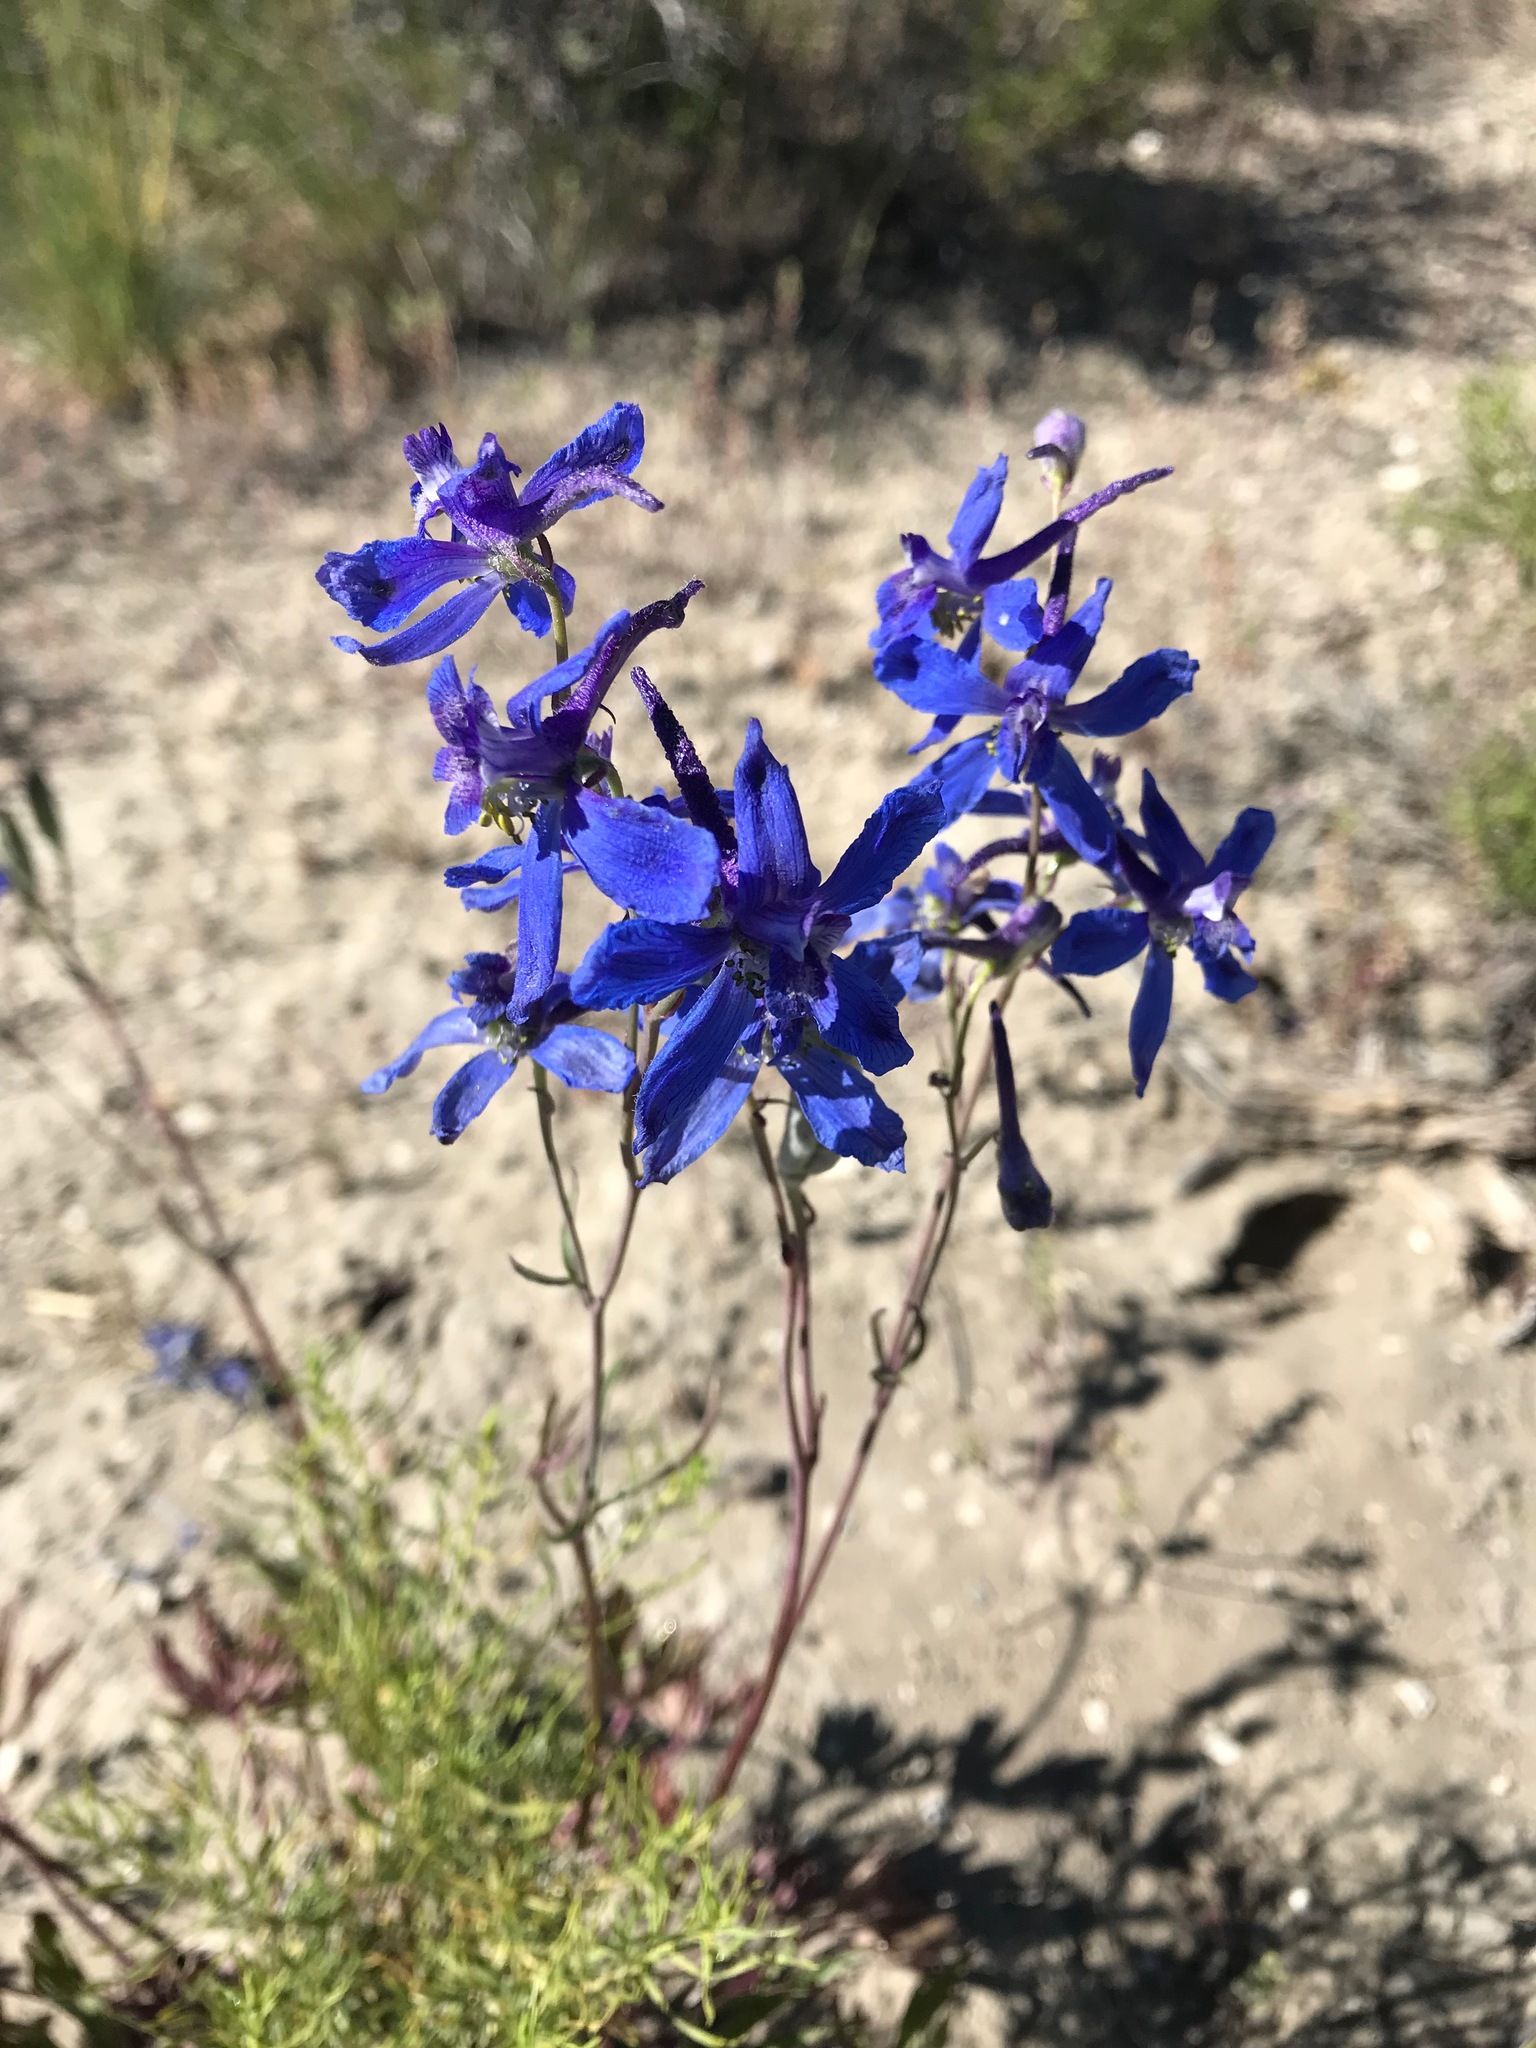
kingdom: Plantae
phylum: Tracheophyta
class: Magnoliopsida
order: Ranunculales
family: Ranunculaceae
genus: Delphinium
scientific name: Delphinium nuttallianum
